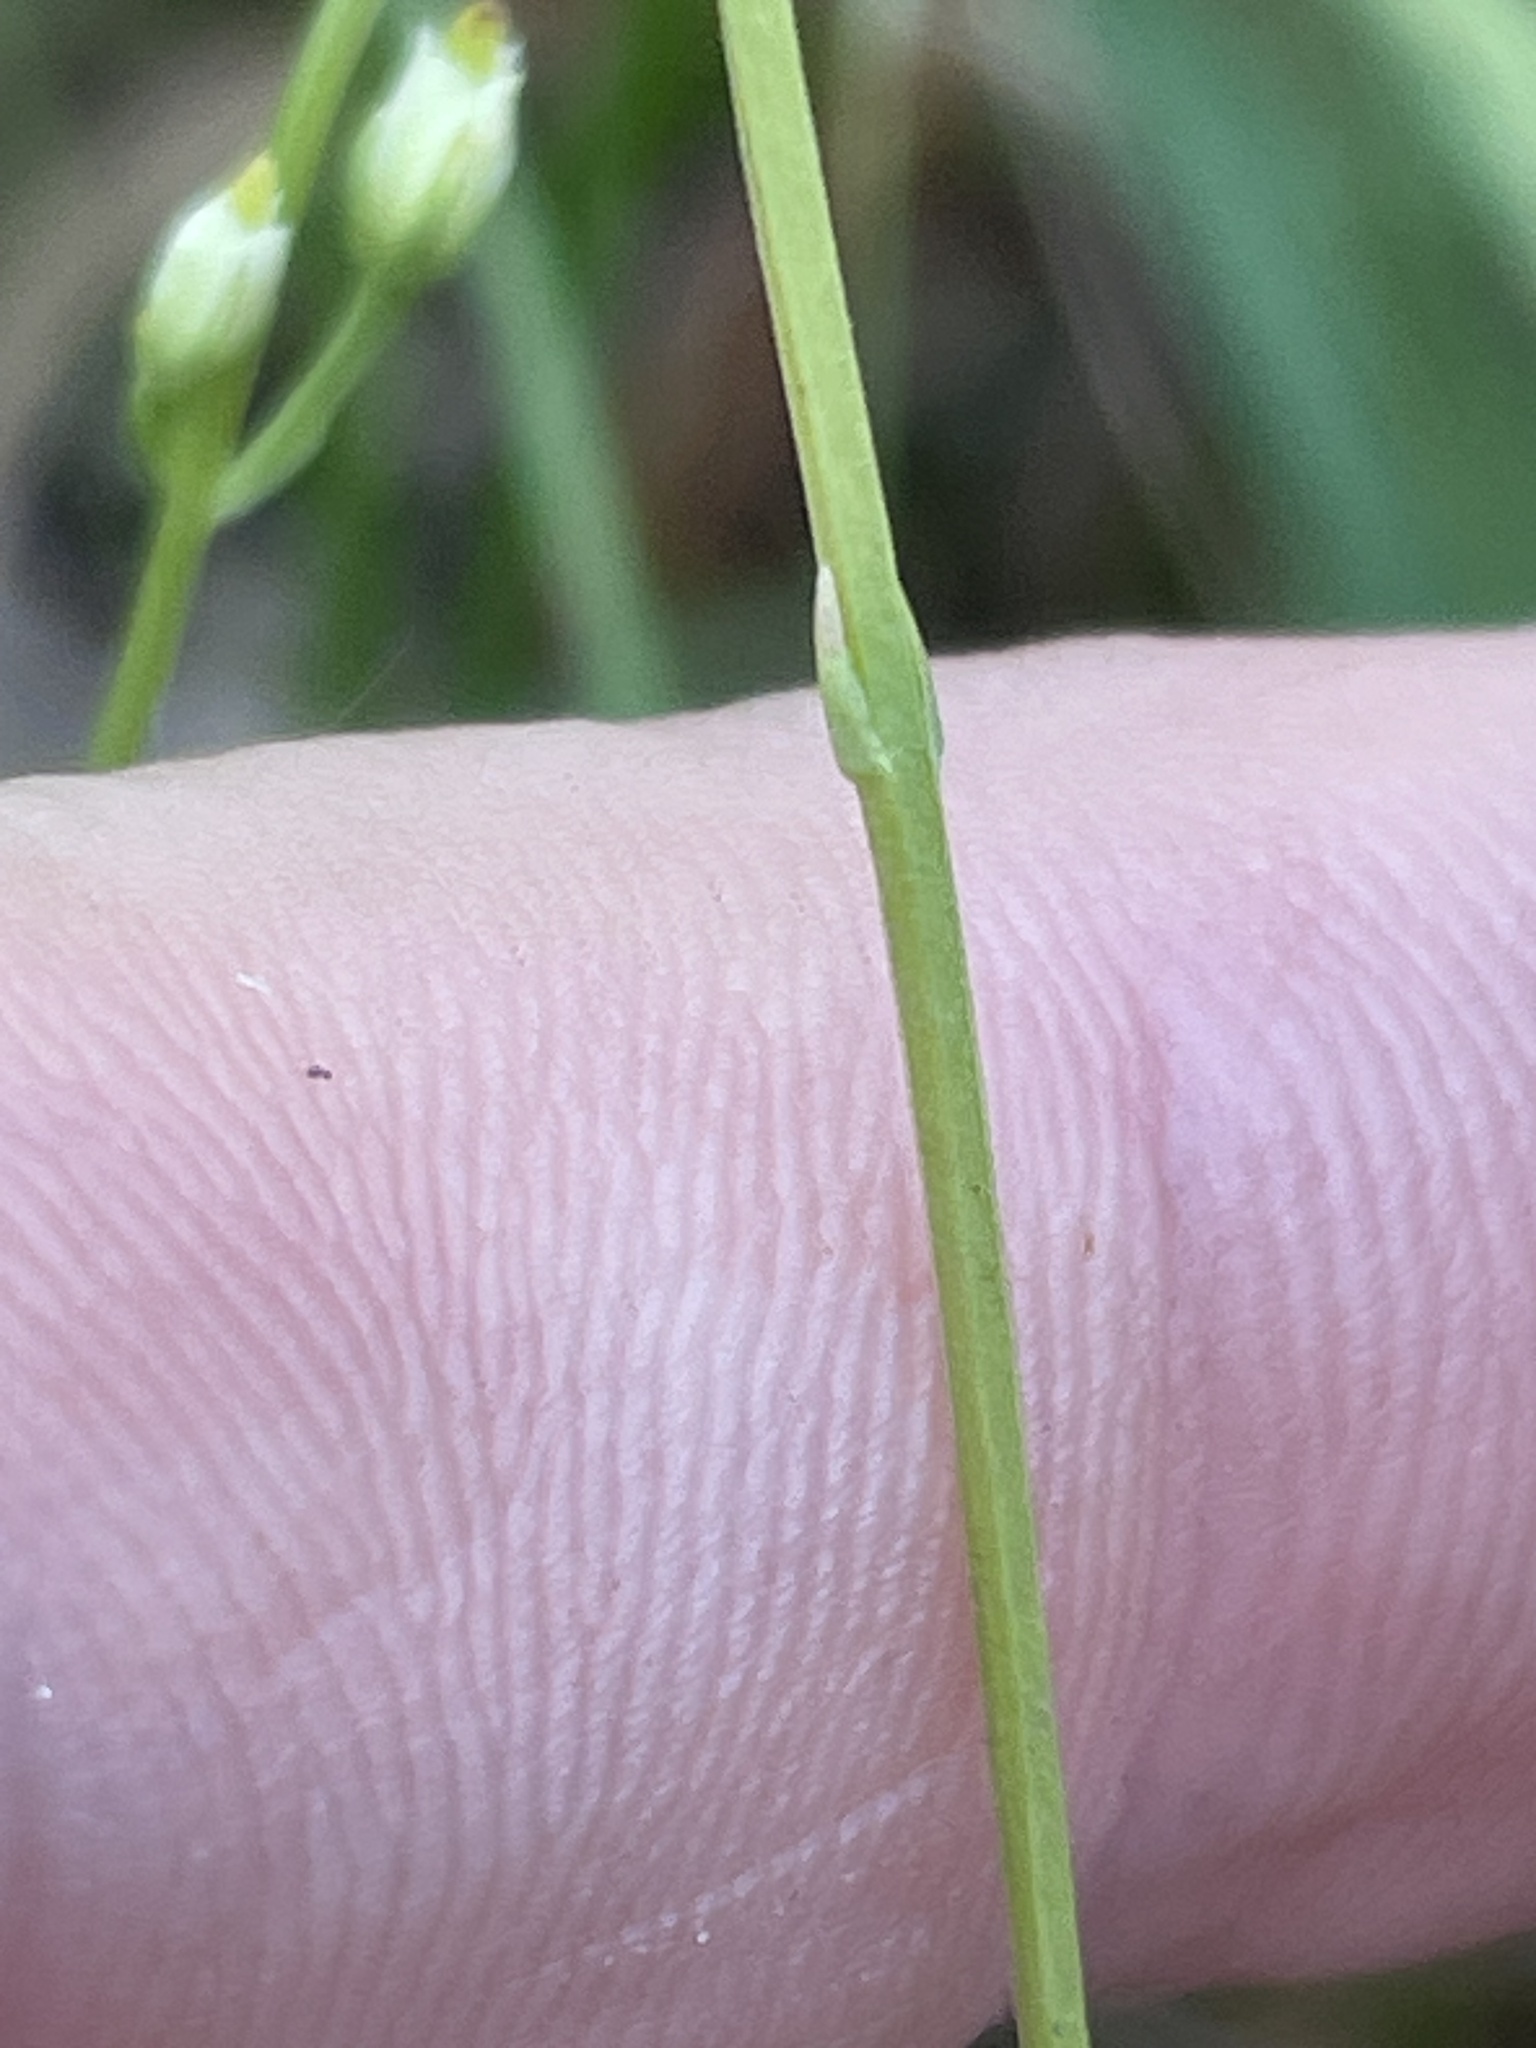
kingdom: Plantae
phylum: Tracheophyta
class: Magnoliopsida
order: Gentianales
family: Gentianaceae
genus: Bartonia
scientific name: Bartonia virginica
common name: Yellow bartonia
